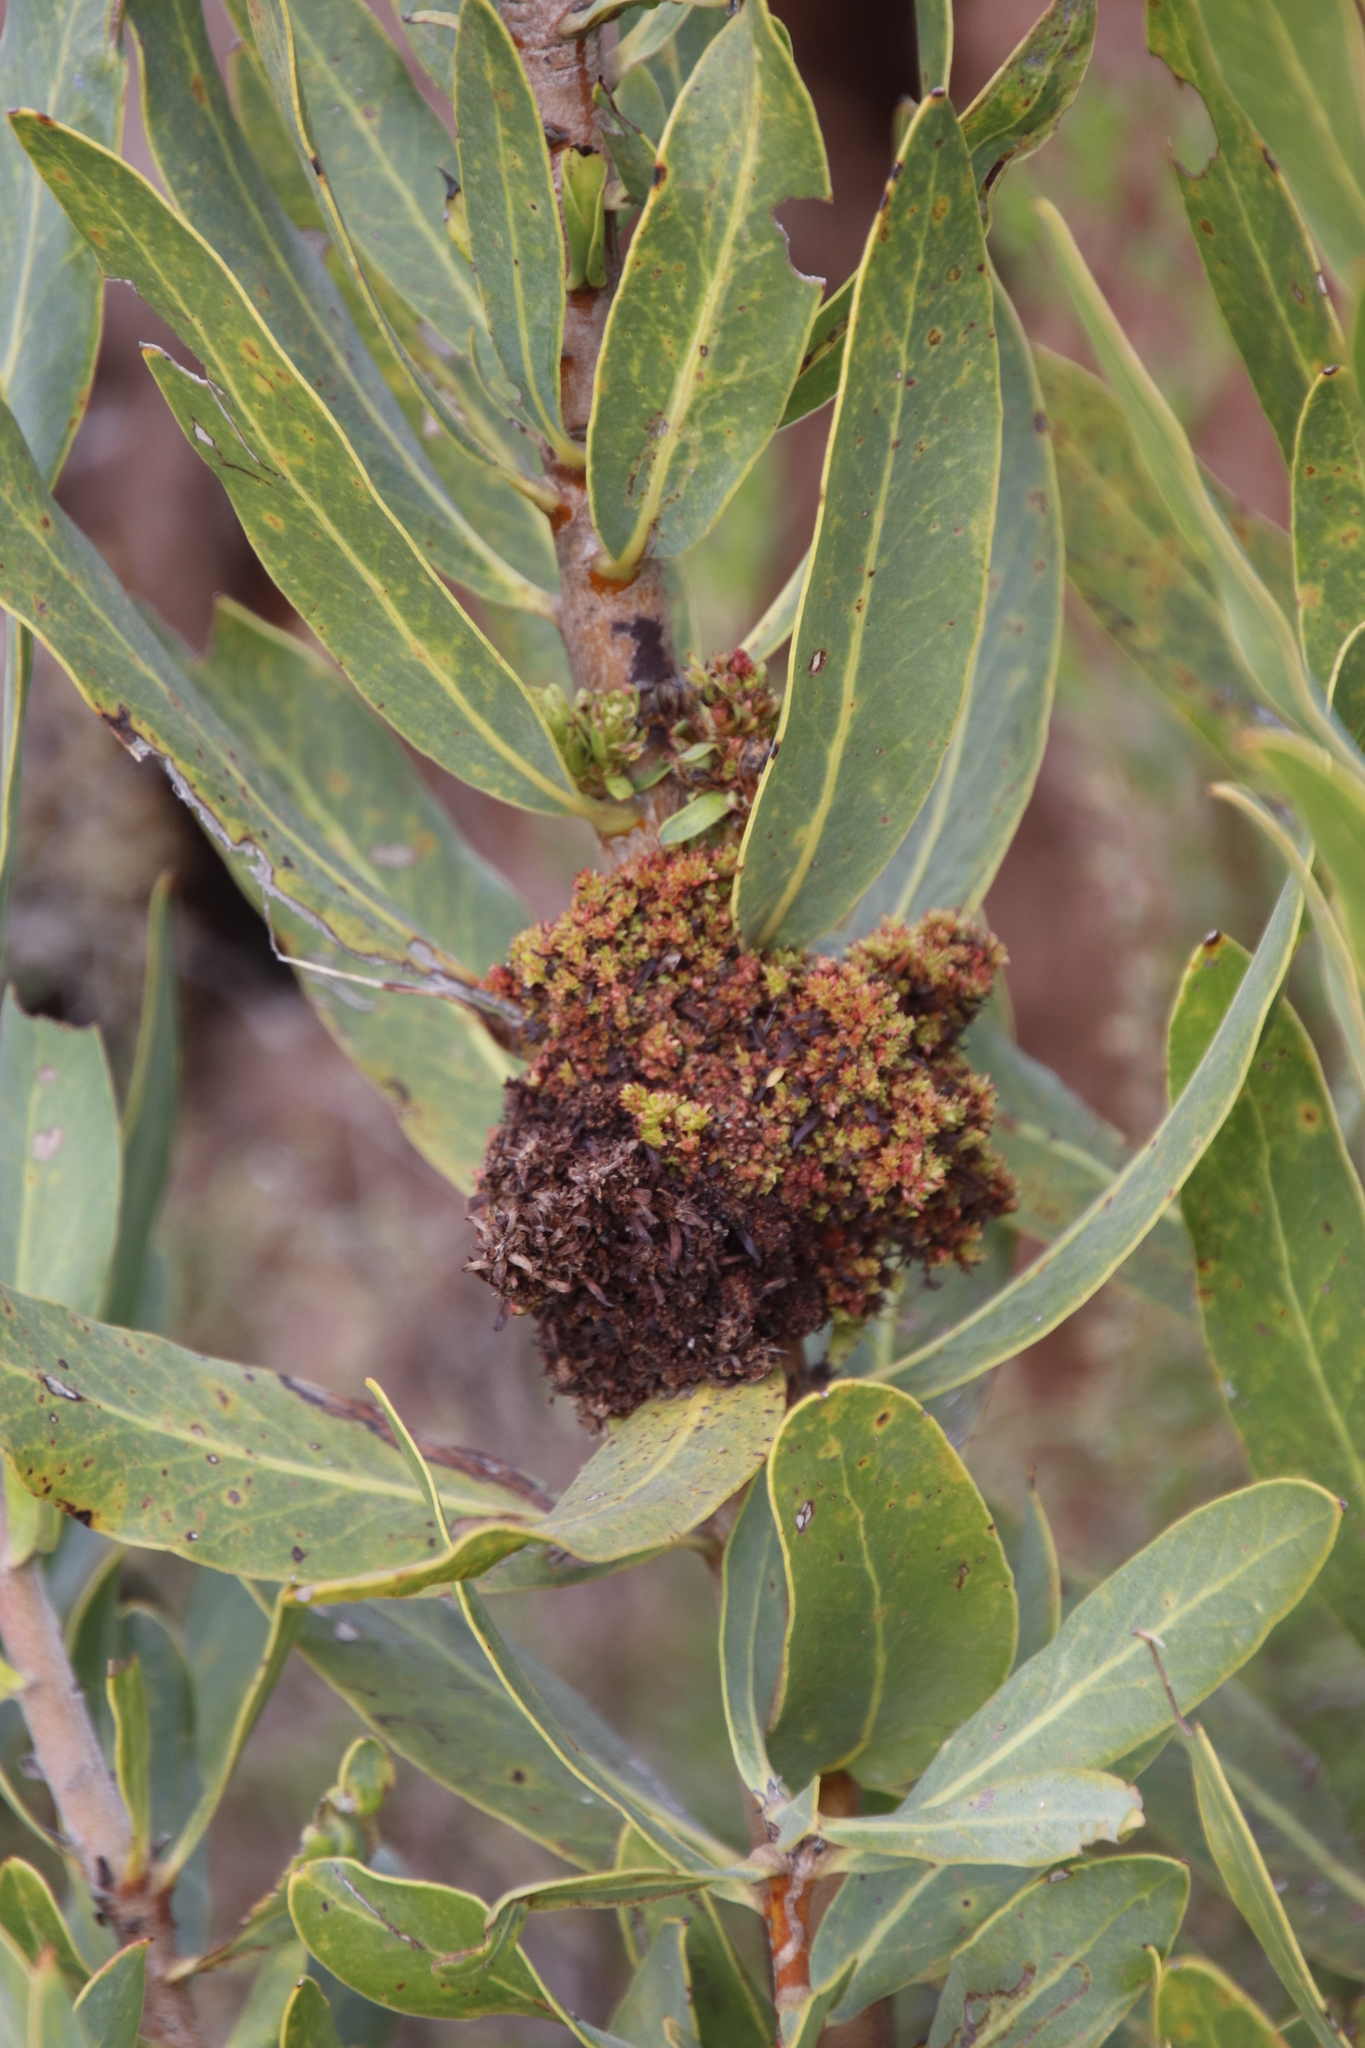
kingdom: Bacteria
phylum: Firmicutes
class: Bacilli
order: Acholeplasmatales
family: Acholeplasmataceae
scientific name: Acholeplasmataceae
